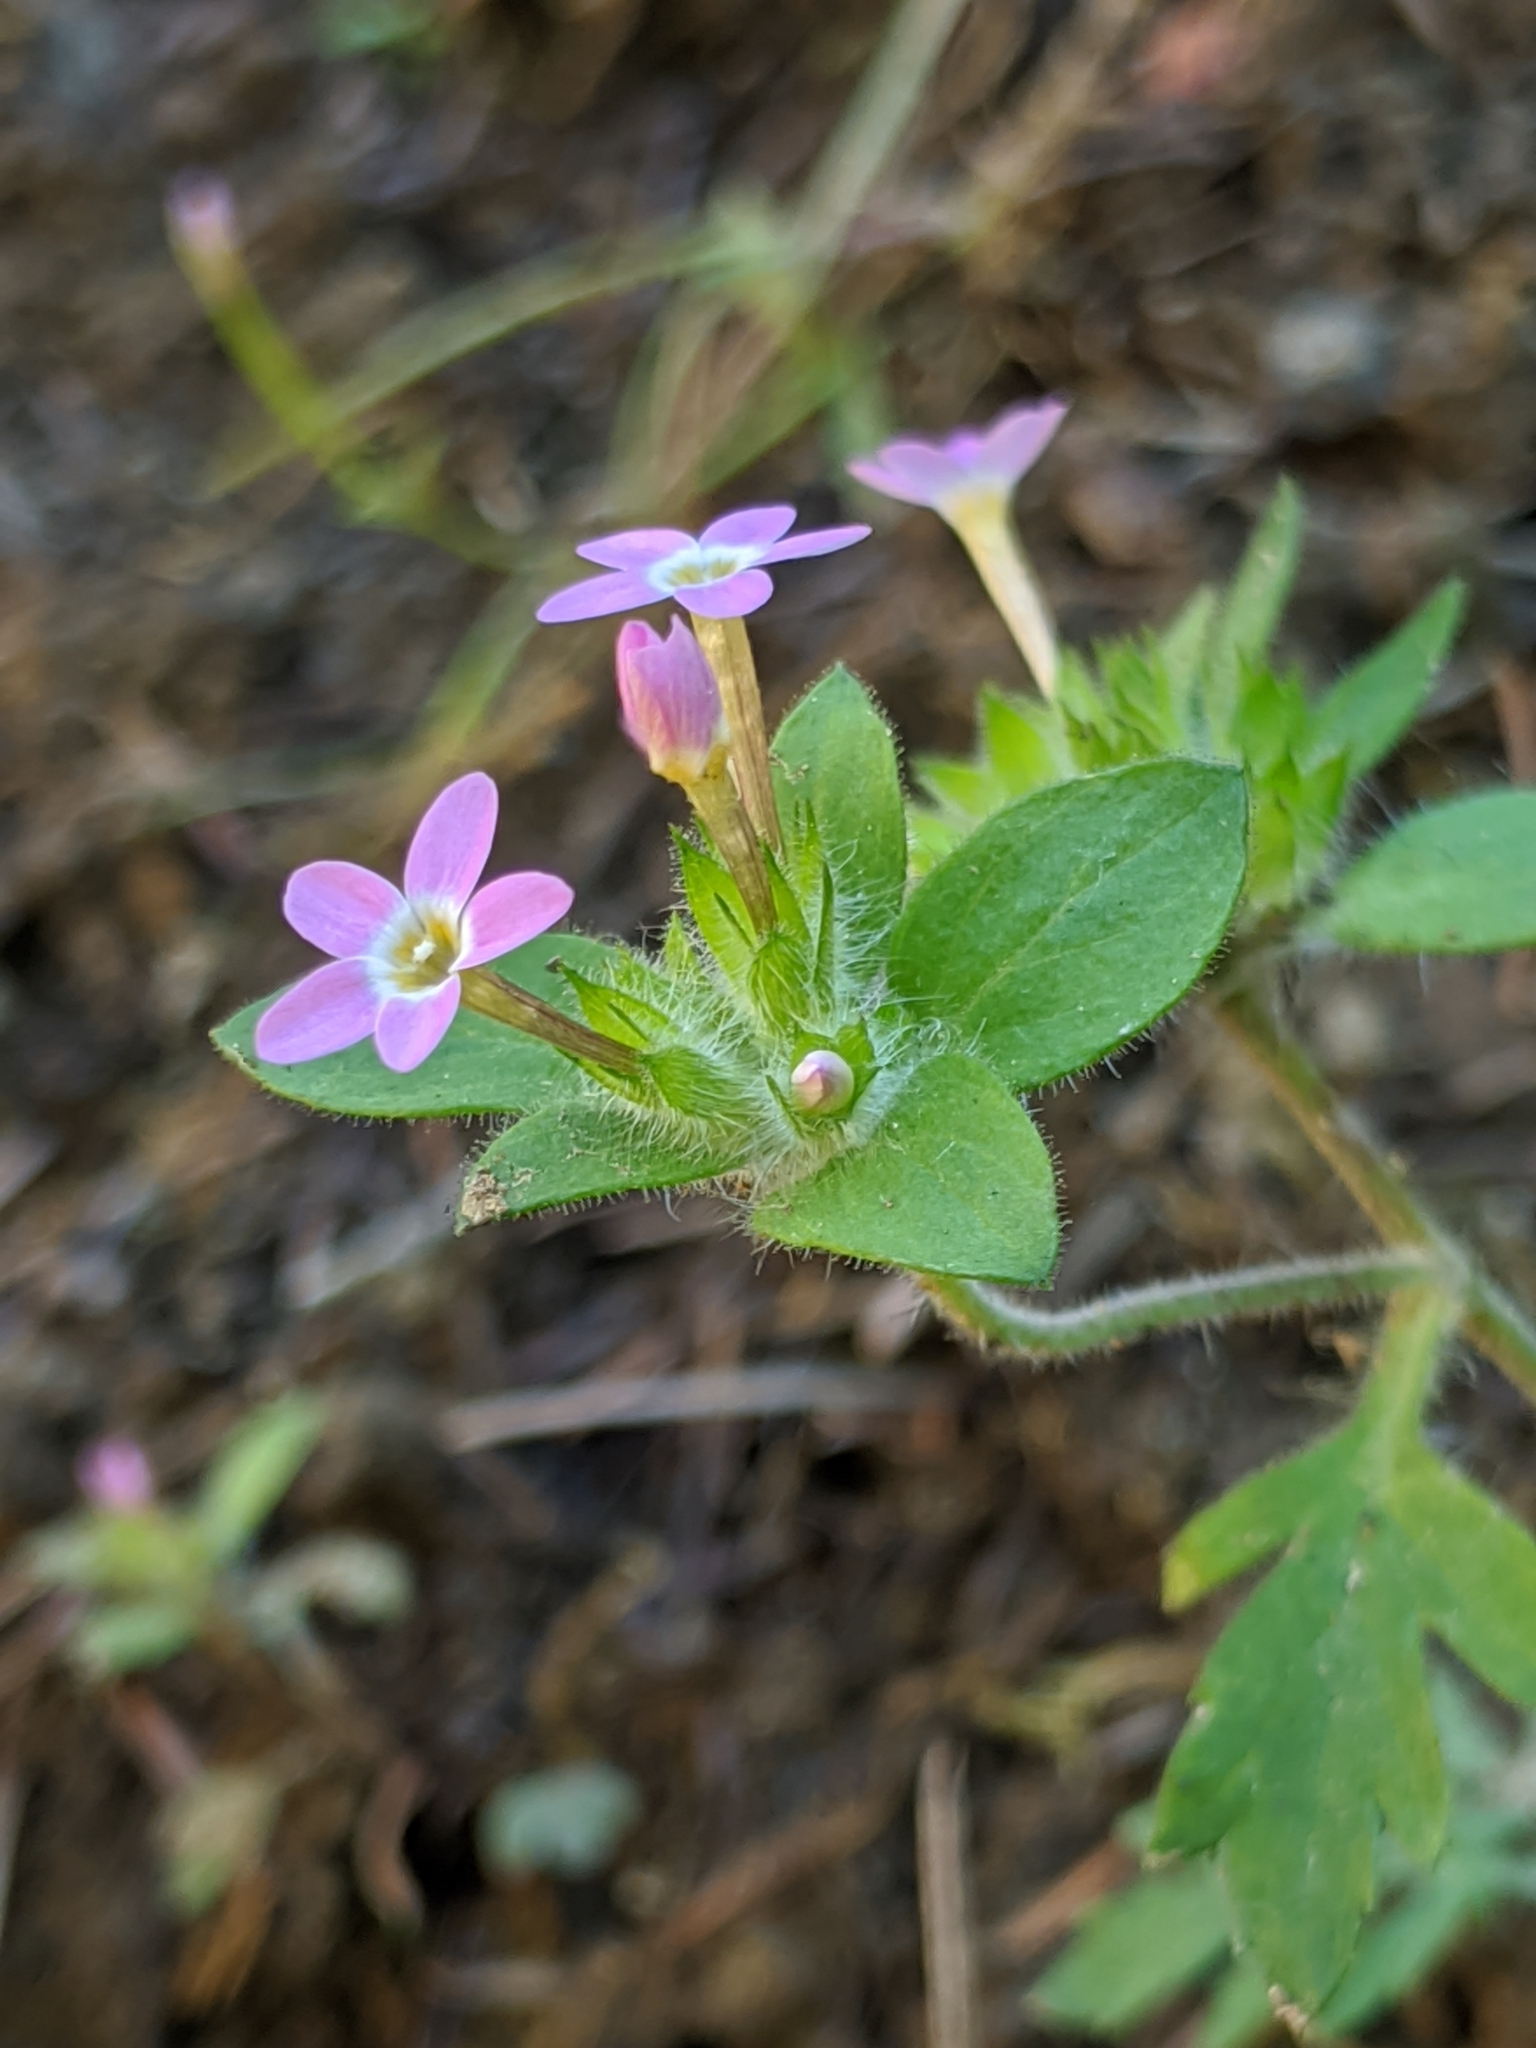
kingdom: Plantae
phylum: Tracheophyta
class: Magnoliopsida
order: Ericales
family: Polemoniaceae
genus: Collomia
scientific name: Collomia heterophylla
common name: Variable-leaved collomia
